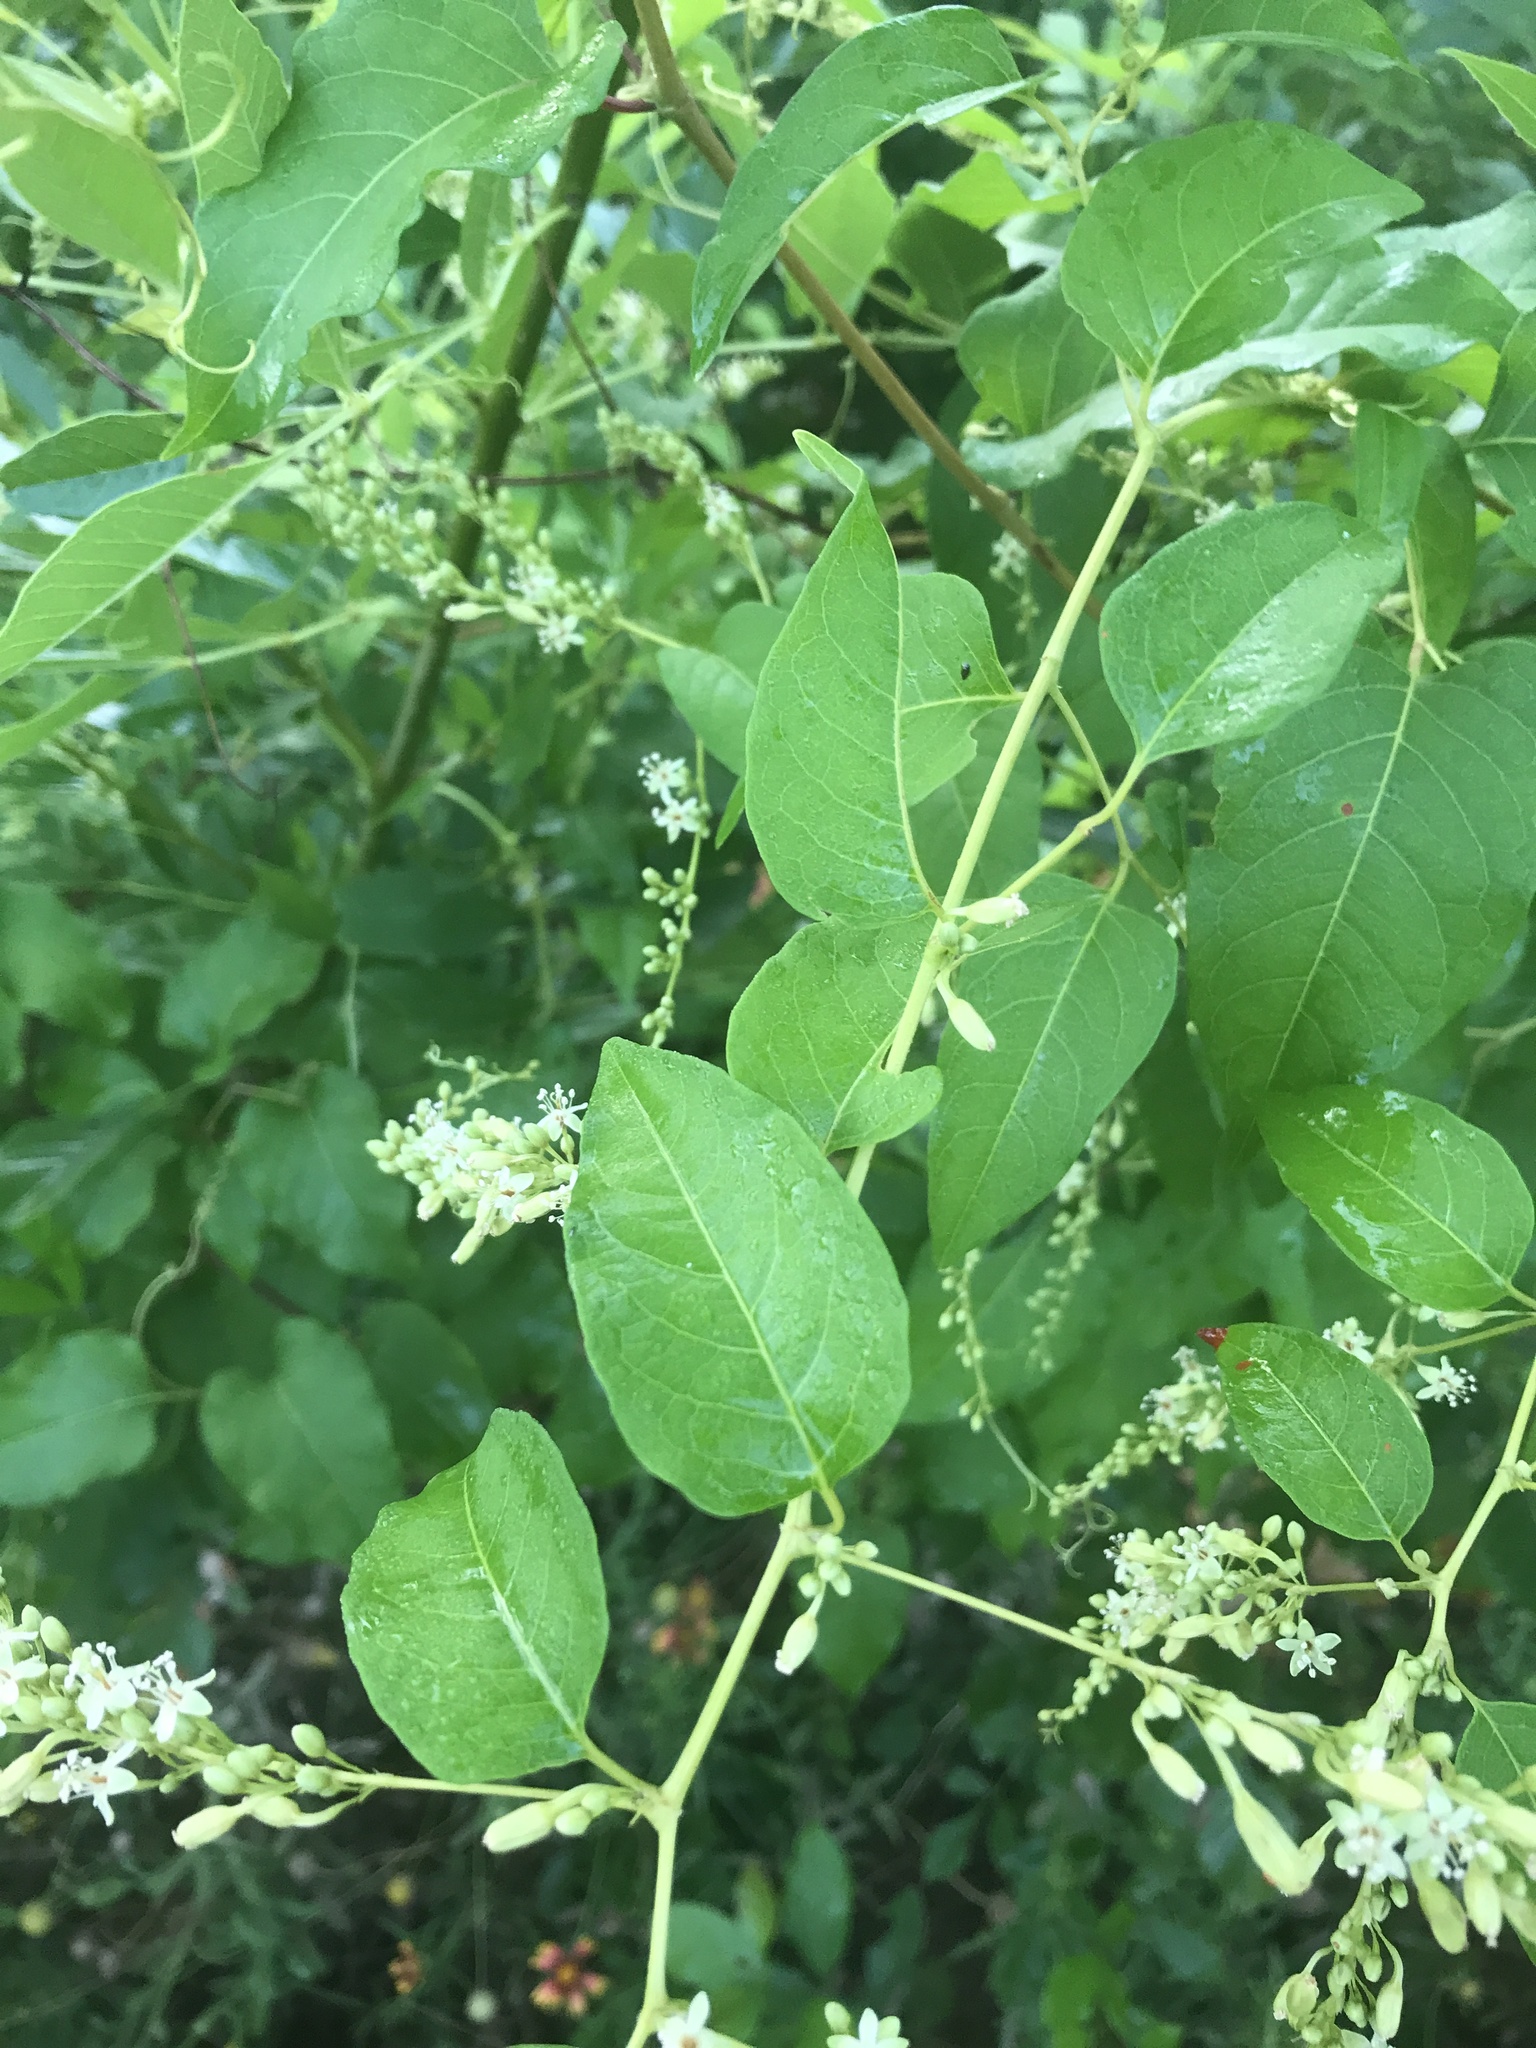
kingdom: Plantae
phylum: Tracheophyta
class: Magnoliopsida
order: Caryophyllales
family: Polygonaceae
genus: Brunnichia
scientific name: Brunnichia ovata
